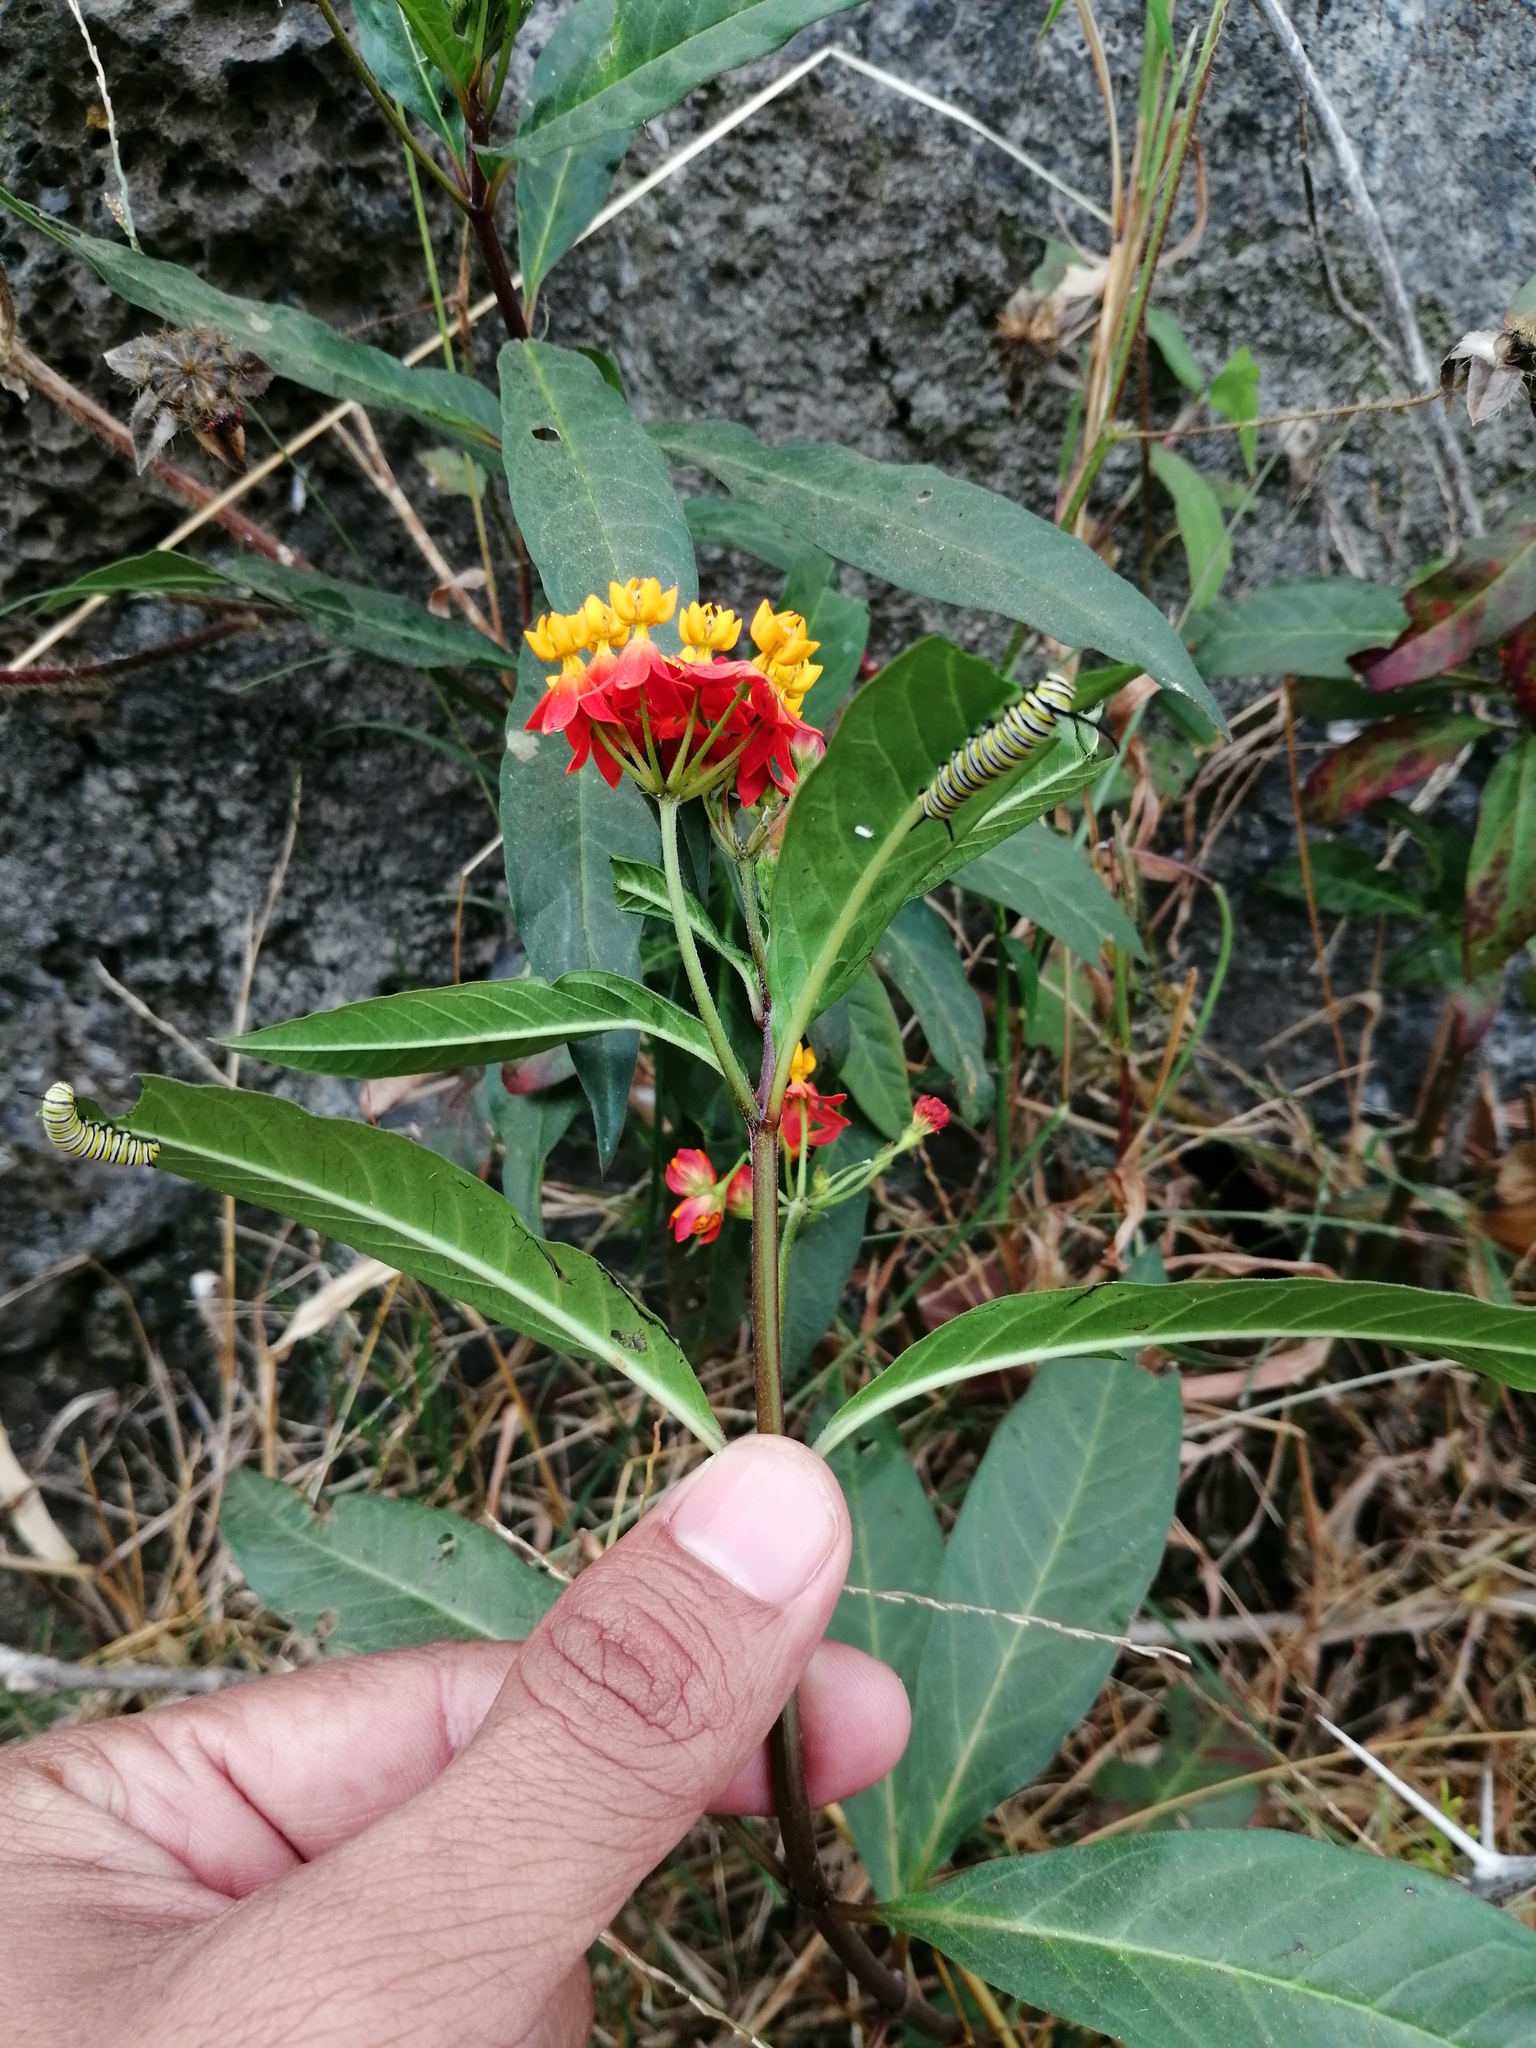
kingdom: Animalia
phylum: Arthropoda
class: Insecta
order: Lepidoptera
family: Nymphalidae
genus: Danaus
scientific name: Danaus plexippus
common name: Monarch
